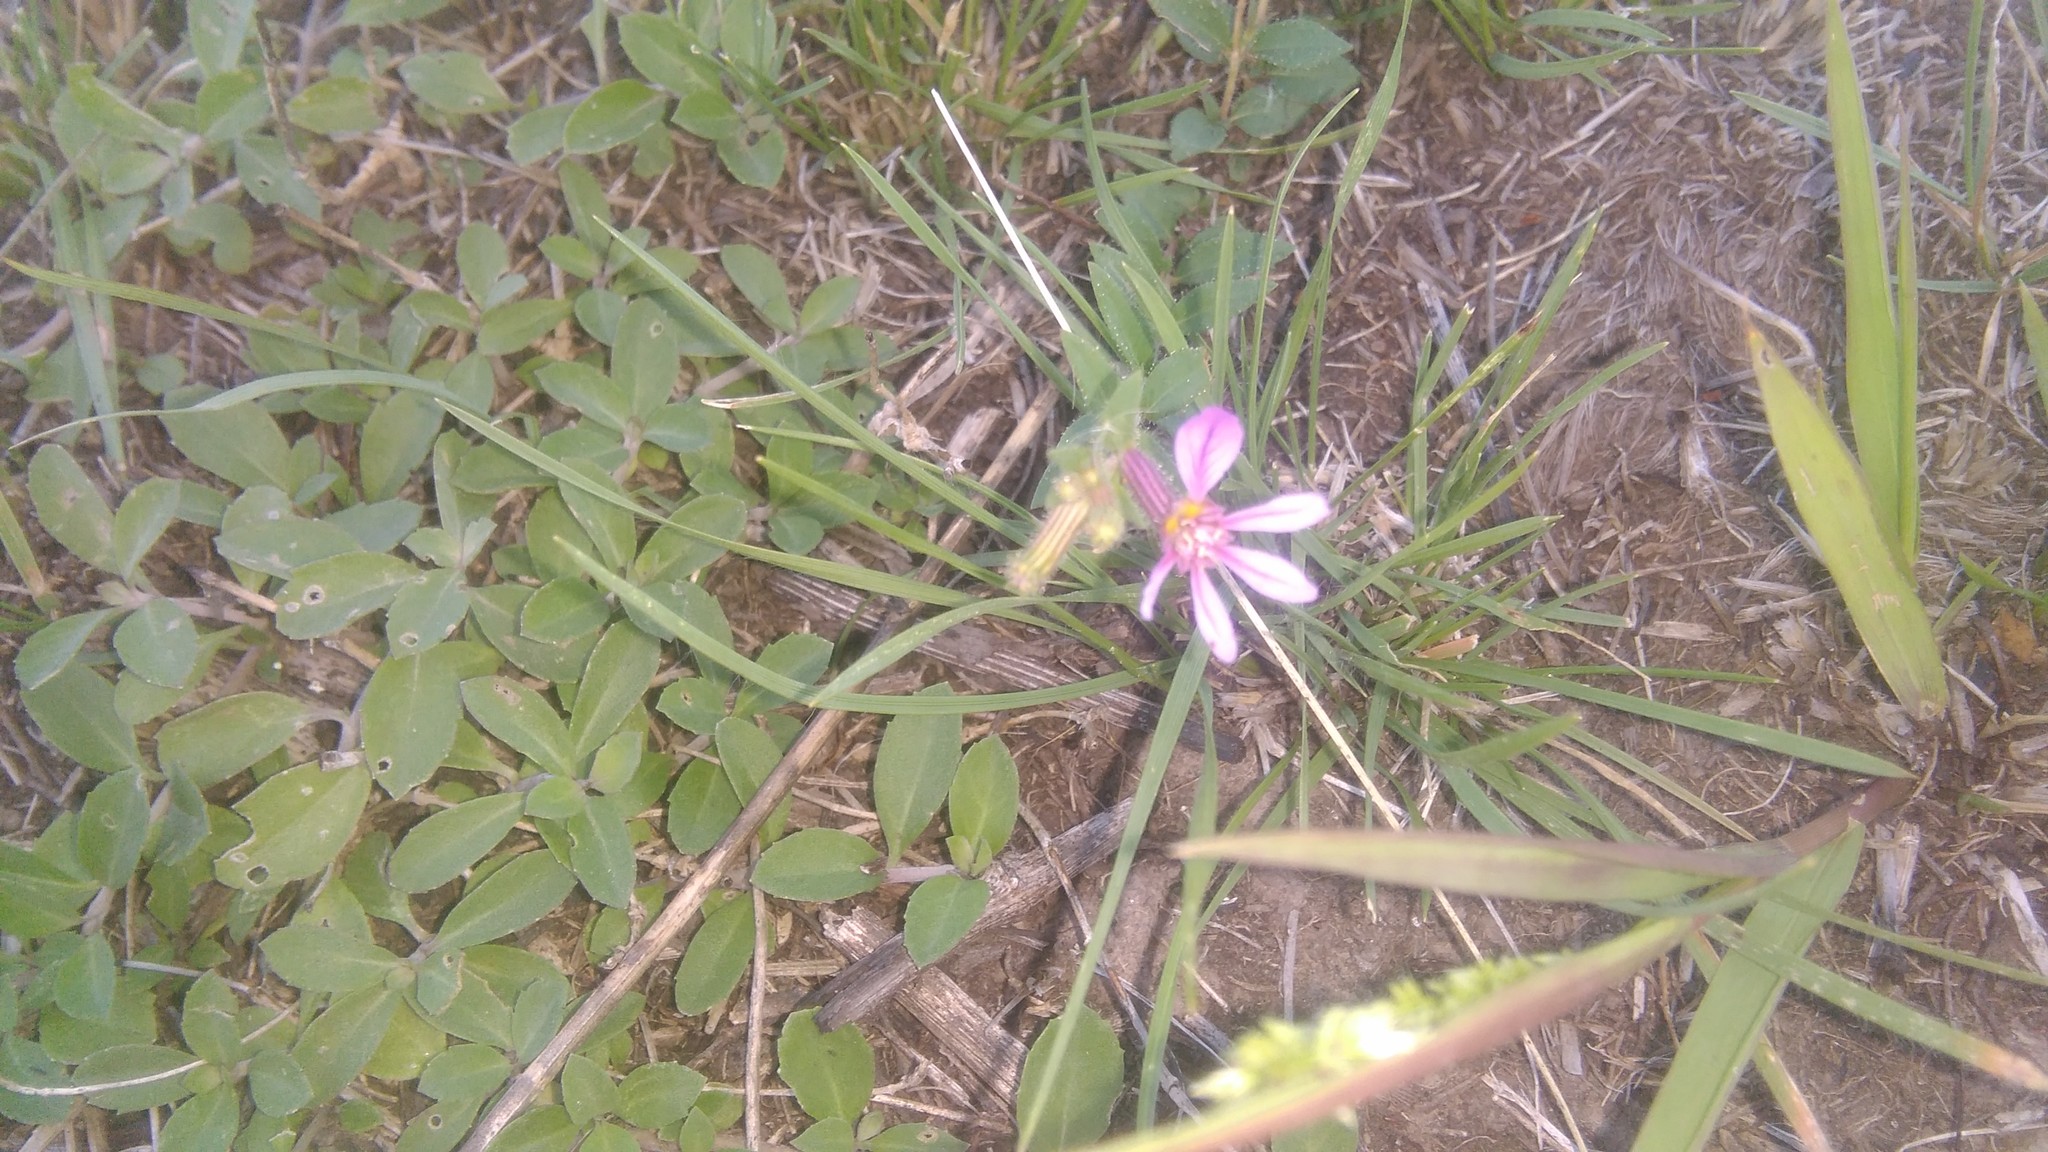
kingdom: Plantae
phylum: Tracheophyta
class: Magnoliopsida
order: Myrtales
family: Lythraceae
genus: Cuphea
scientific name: Cuphea glutinosa
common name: Sticky waxweed
